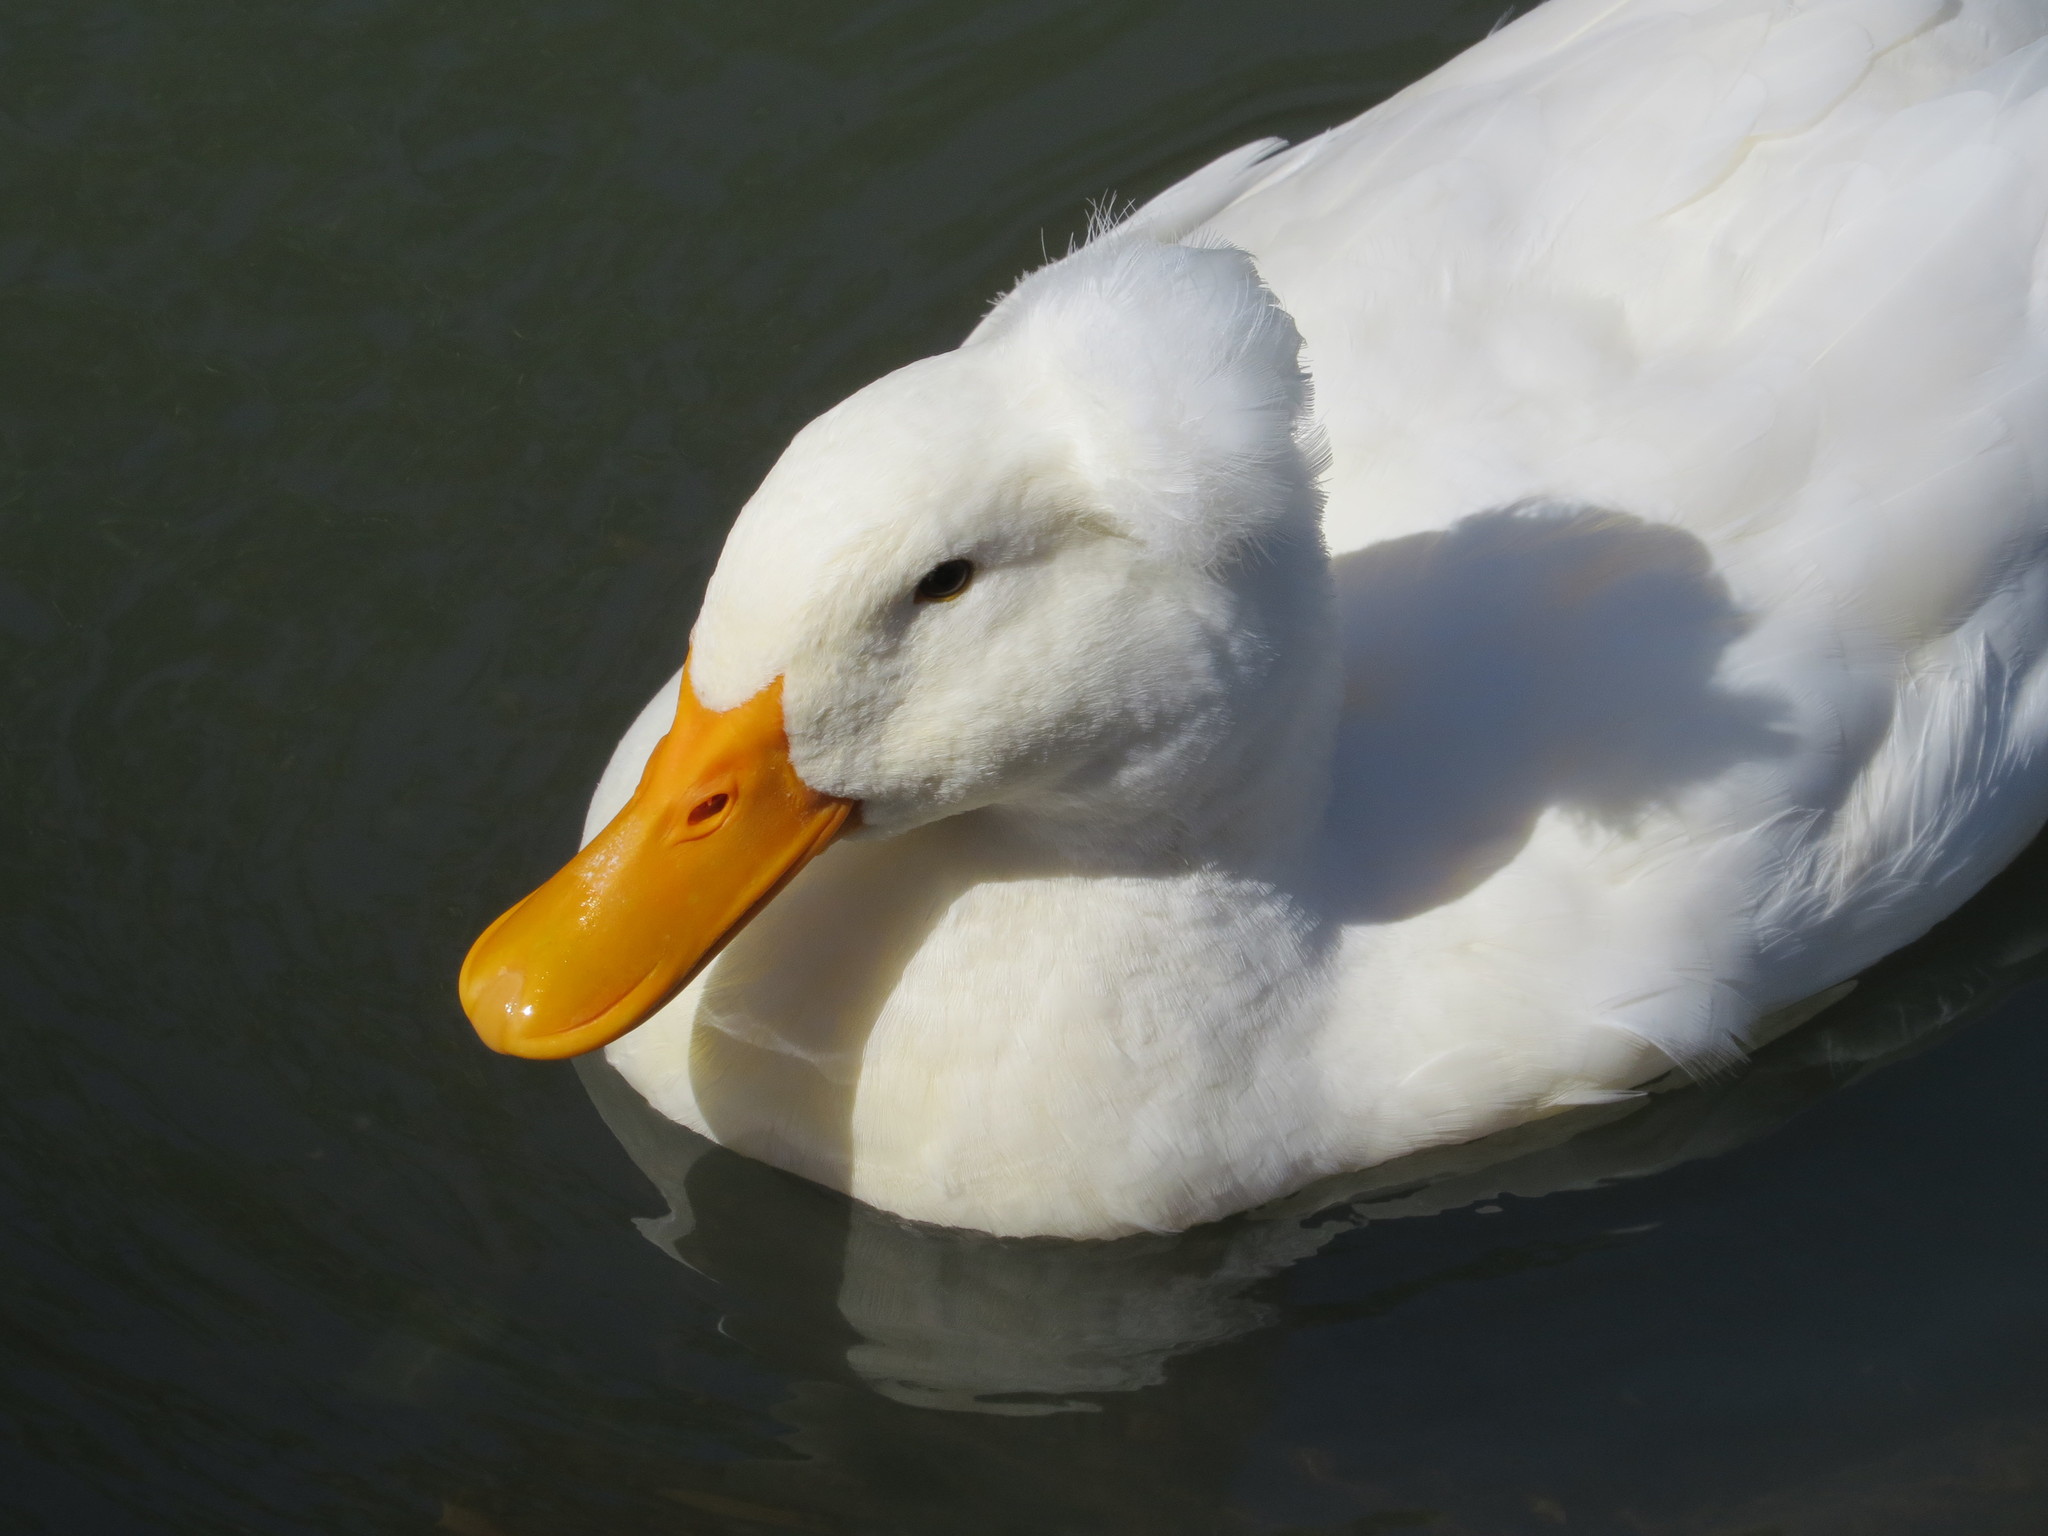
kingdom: Animalia
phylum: Chordata
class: Aves
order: Anseriformes
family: Anatidae
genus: Anas
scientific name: Anas platyrhynchos
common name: Mallard
